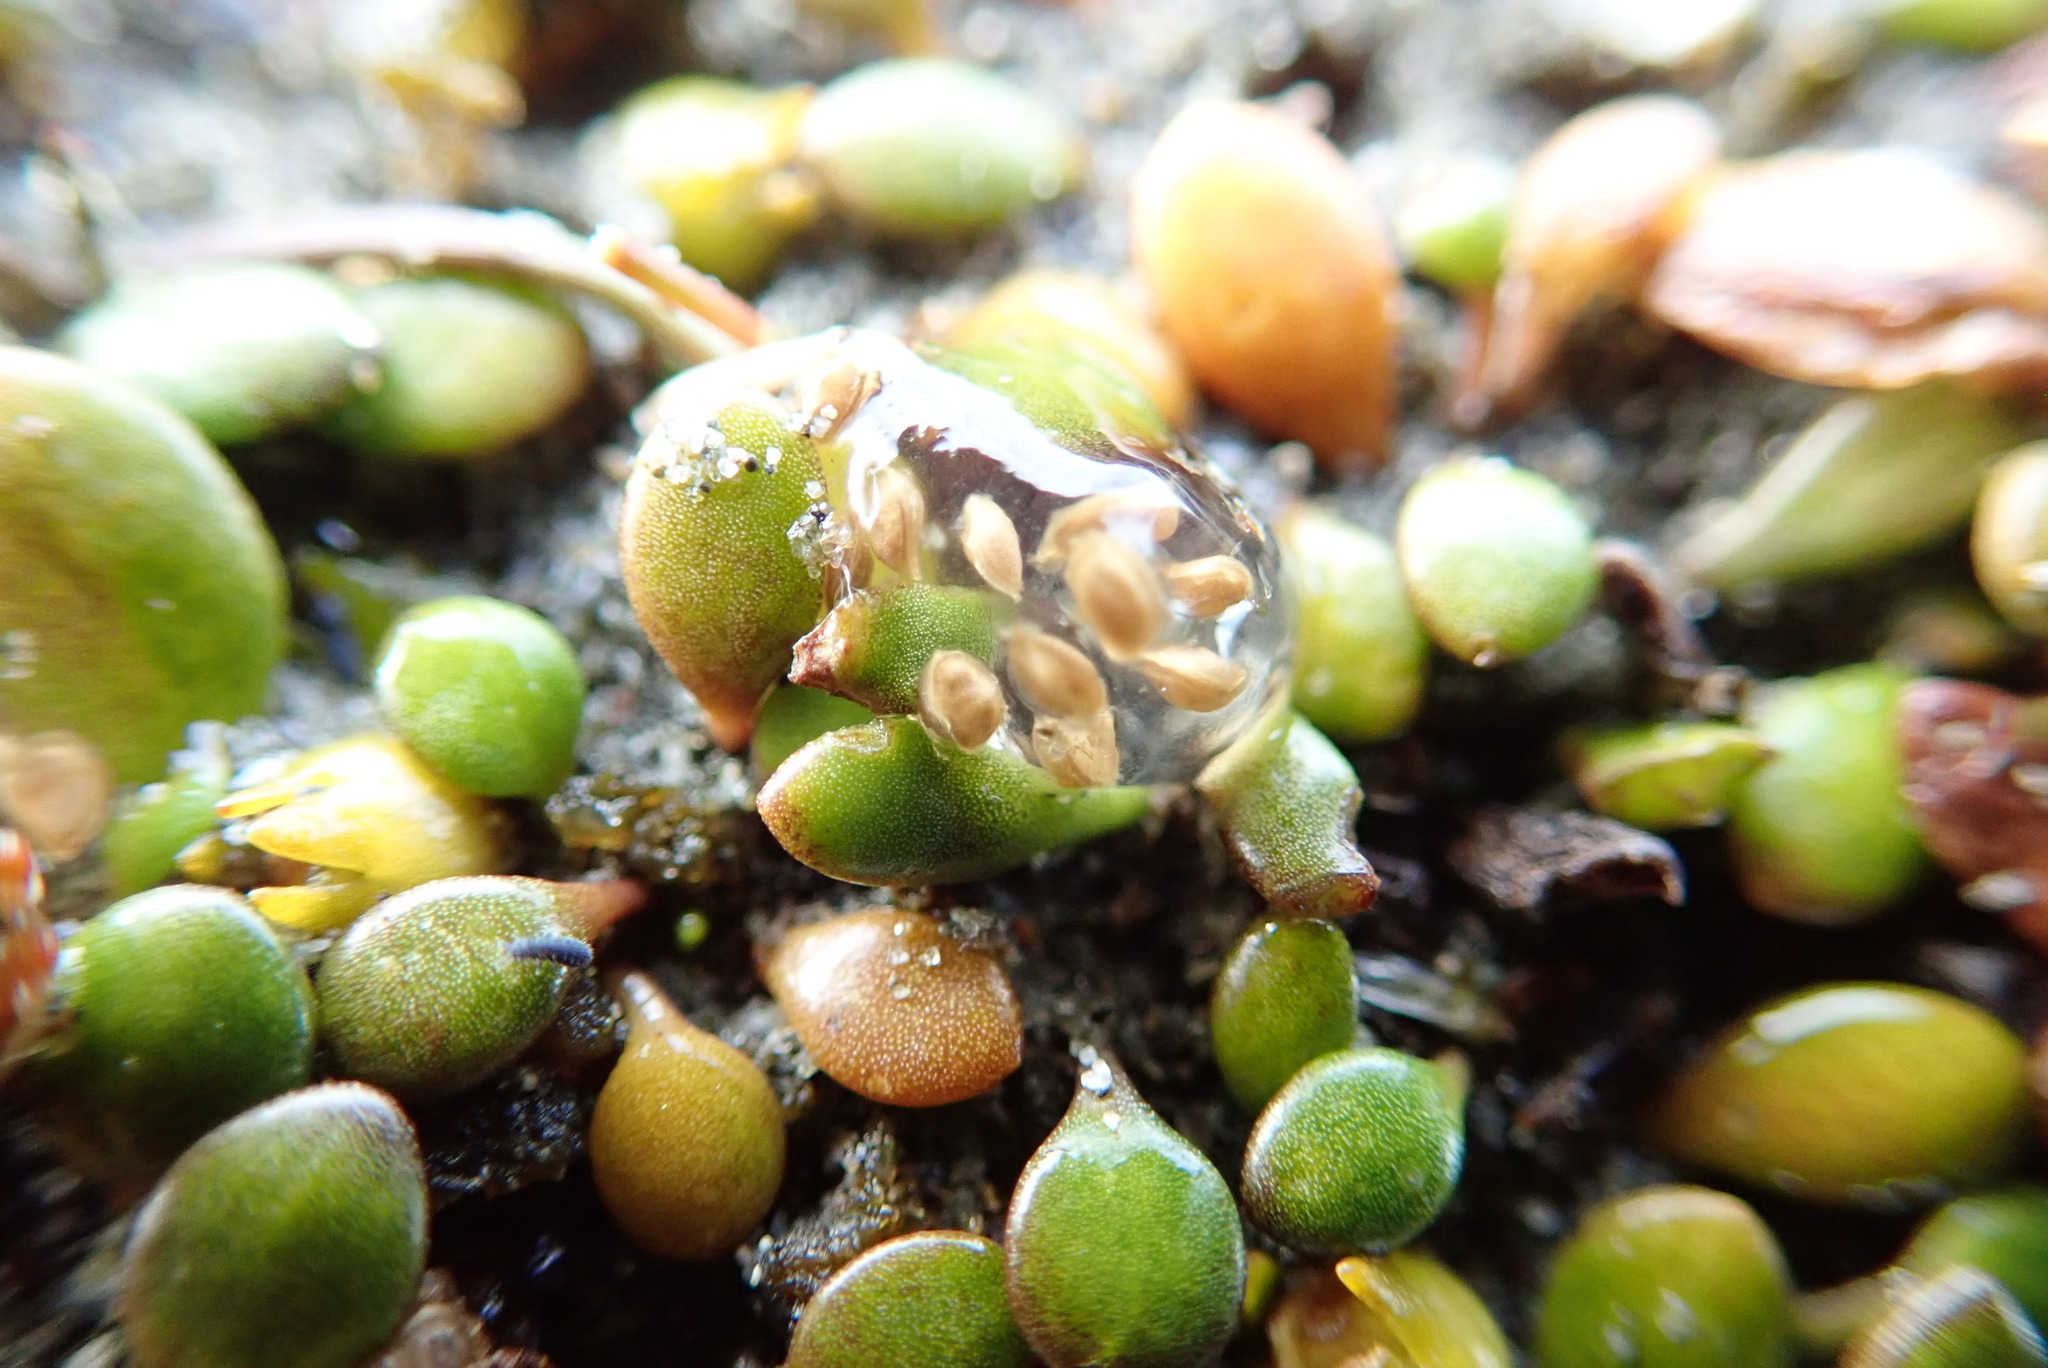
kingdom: Plantae
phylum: Tracheophyta
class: Magnoliopsida
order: Asterales
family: Goodeniaceae
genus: Goodenia
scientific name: Goodenia heenanii
